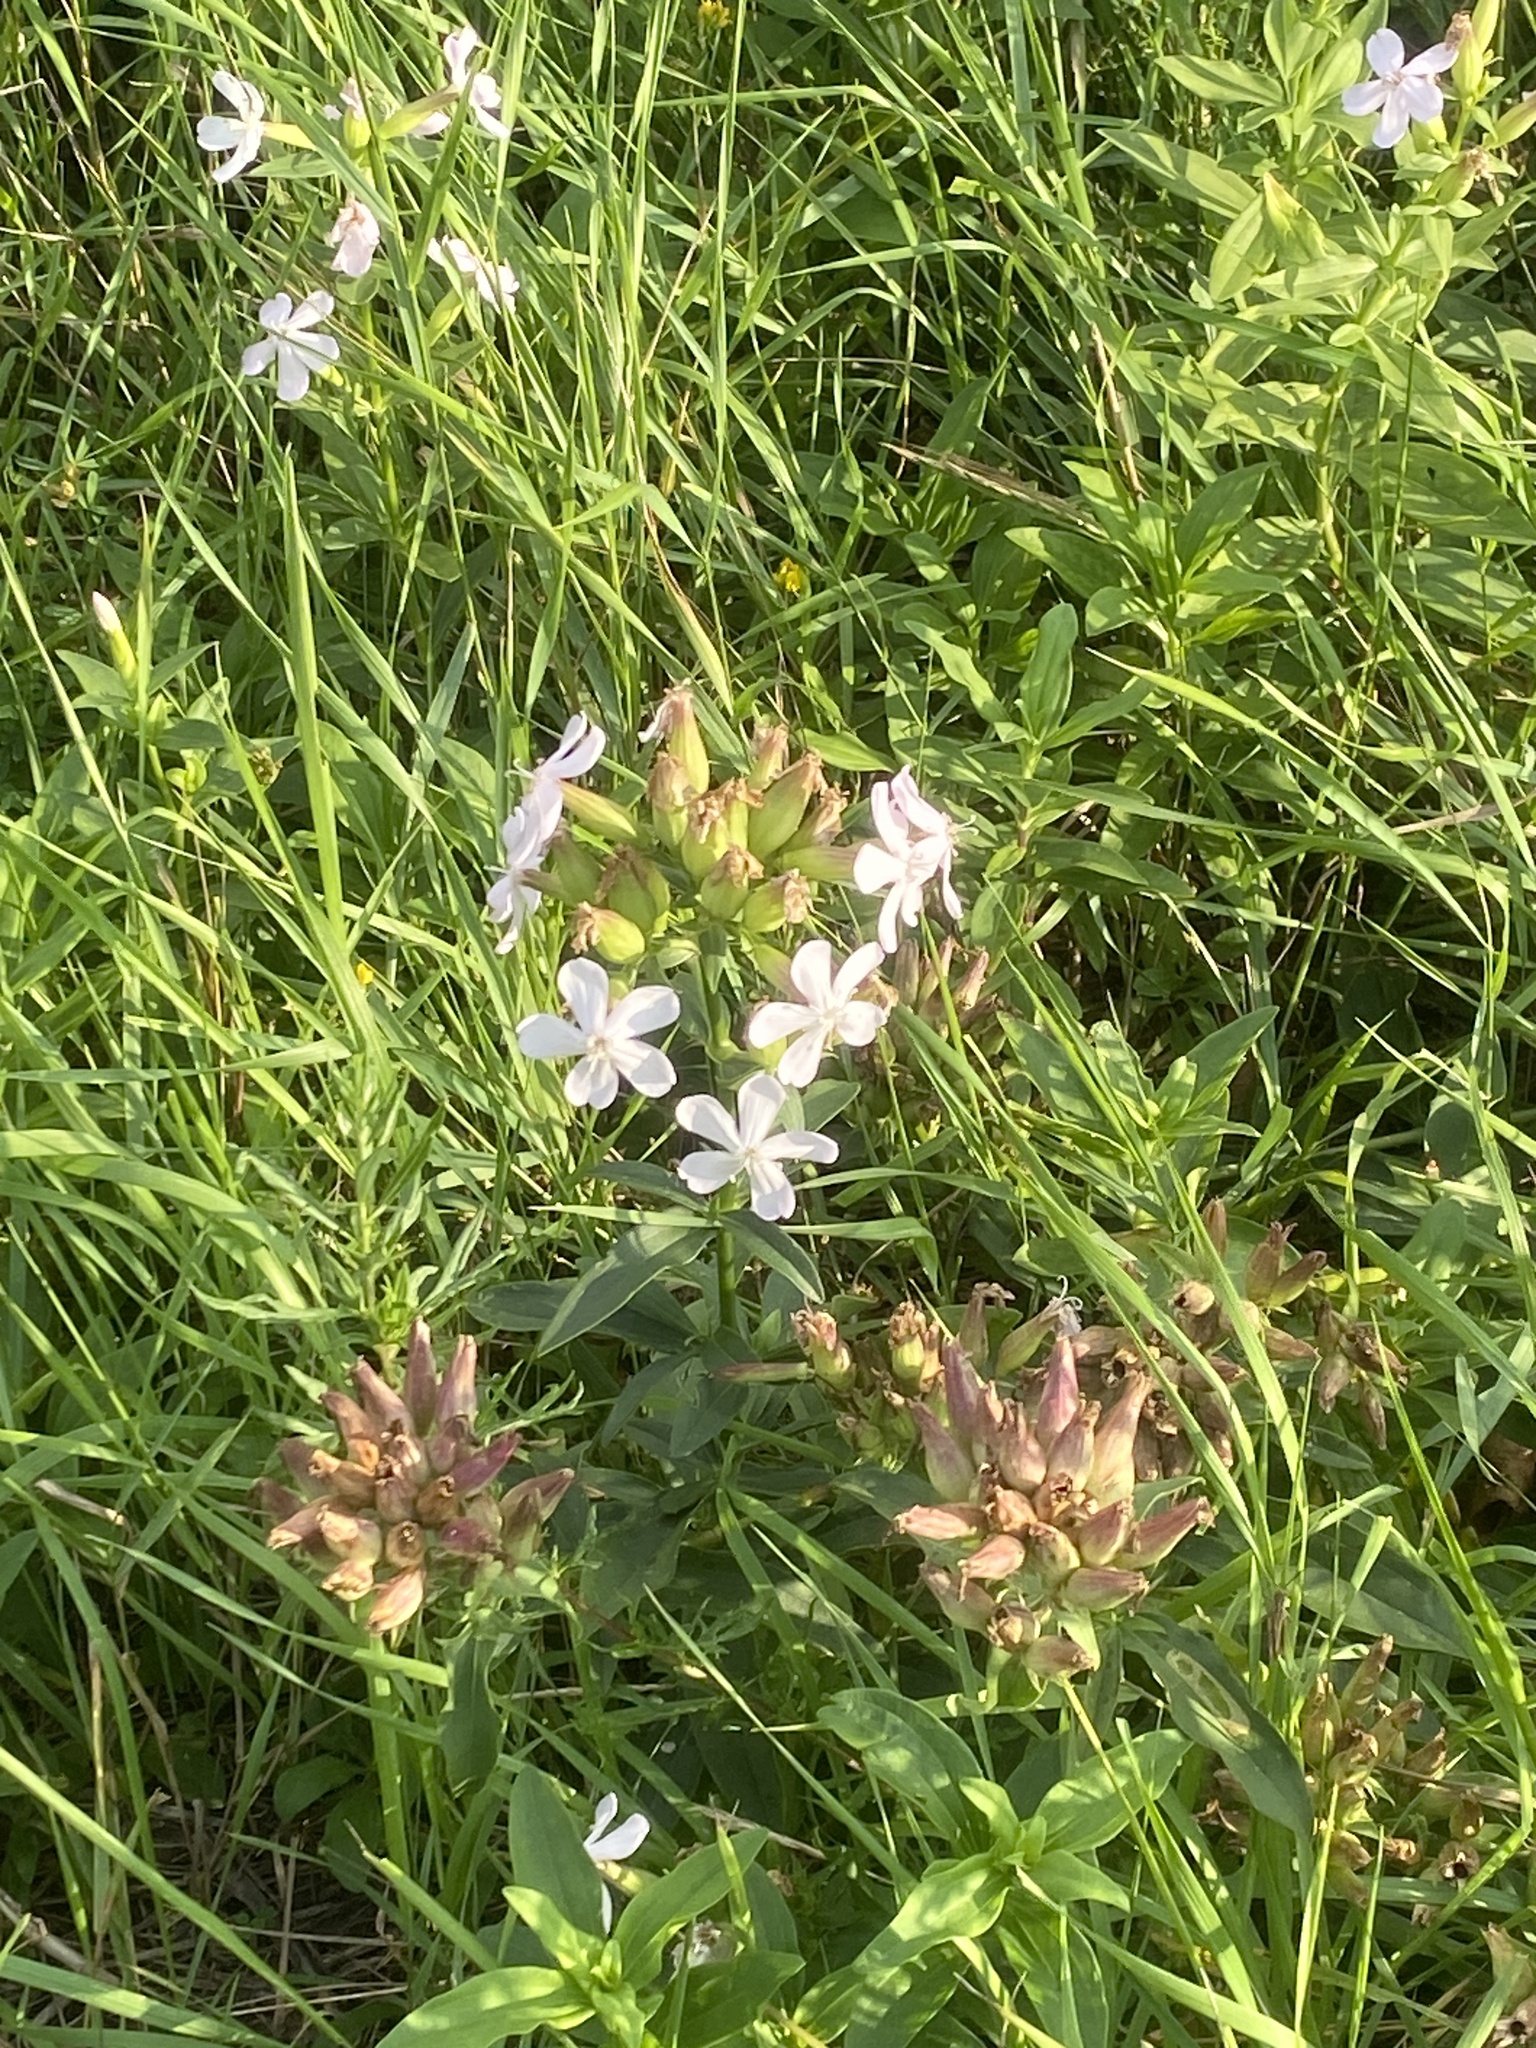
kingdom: Plantae
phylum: Tracheophyta
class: Magnoliopsida
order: Caryophyllales
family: Caryophyllaceae
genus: Saponaria
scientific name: Saponaria officinalis
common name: Soapwort
